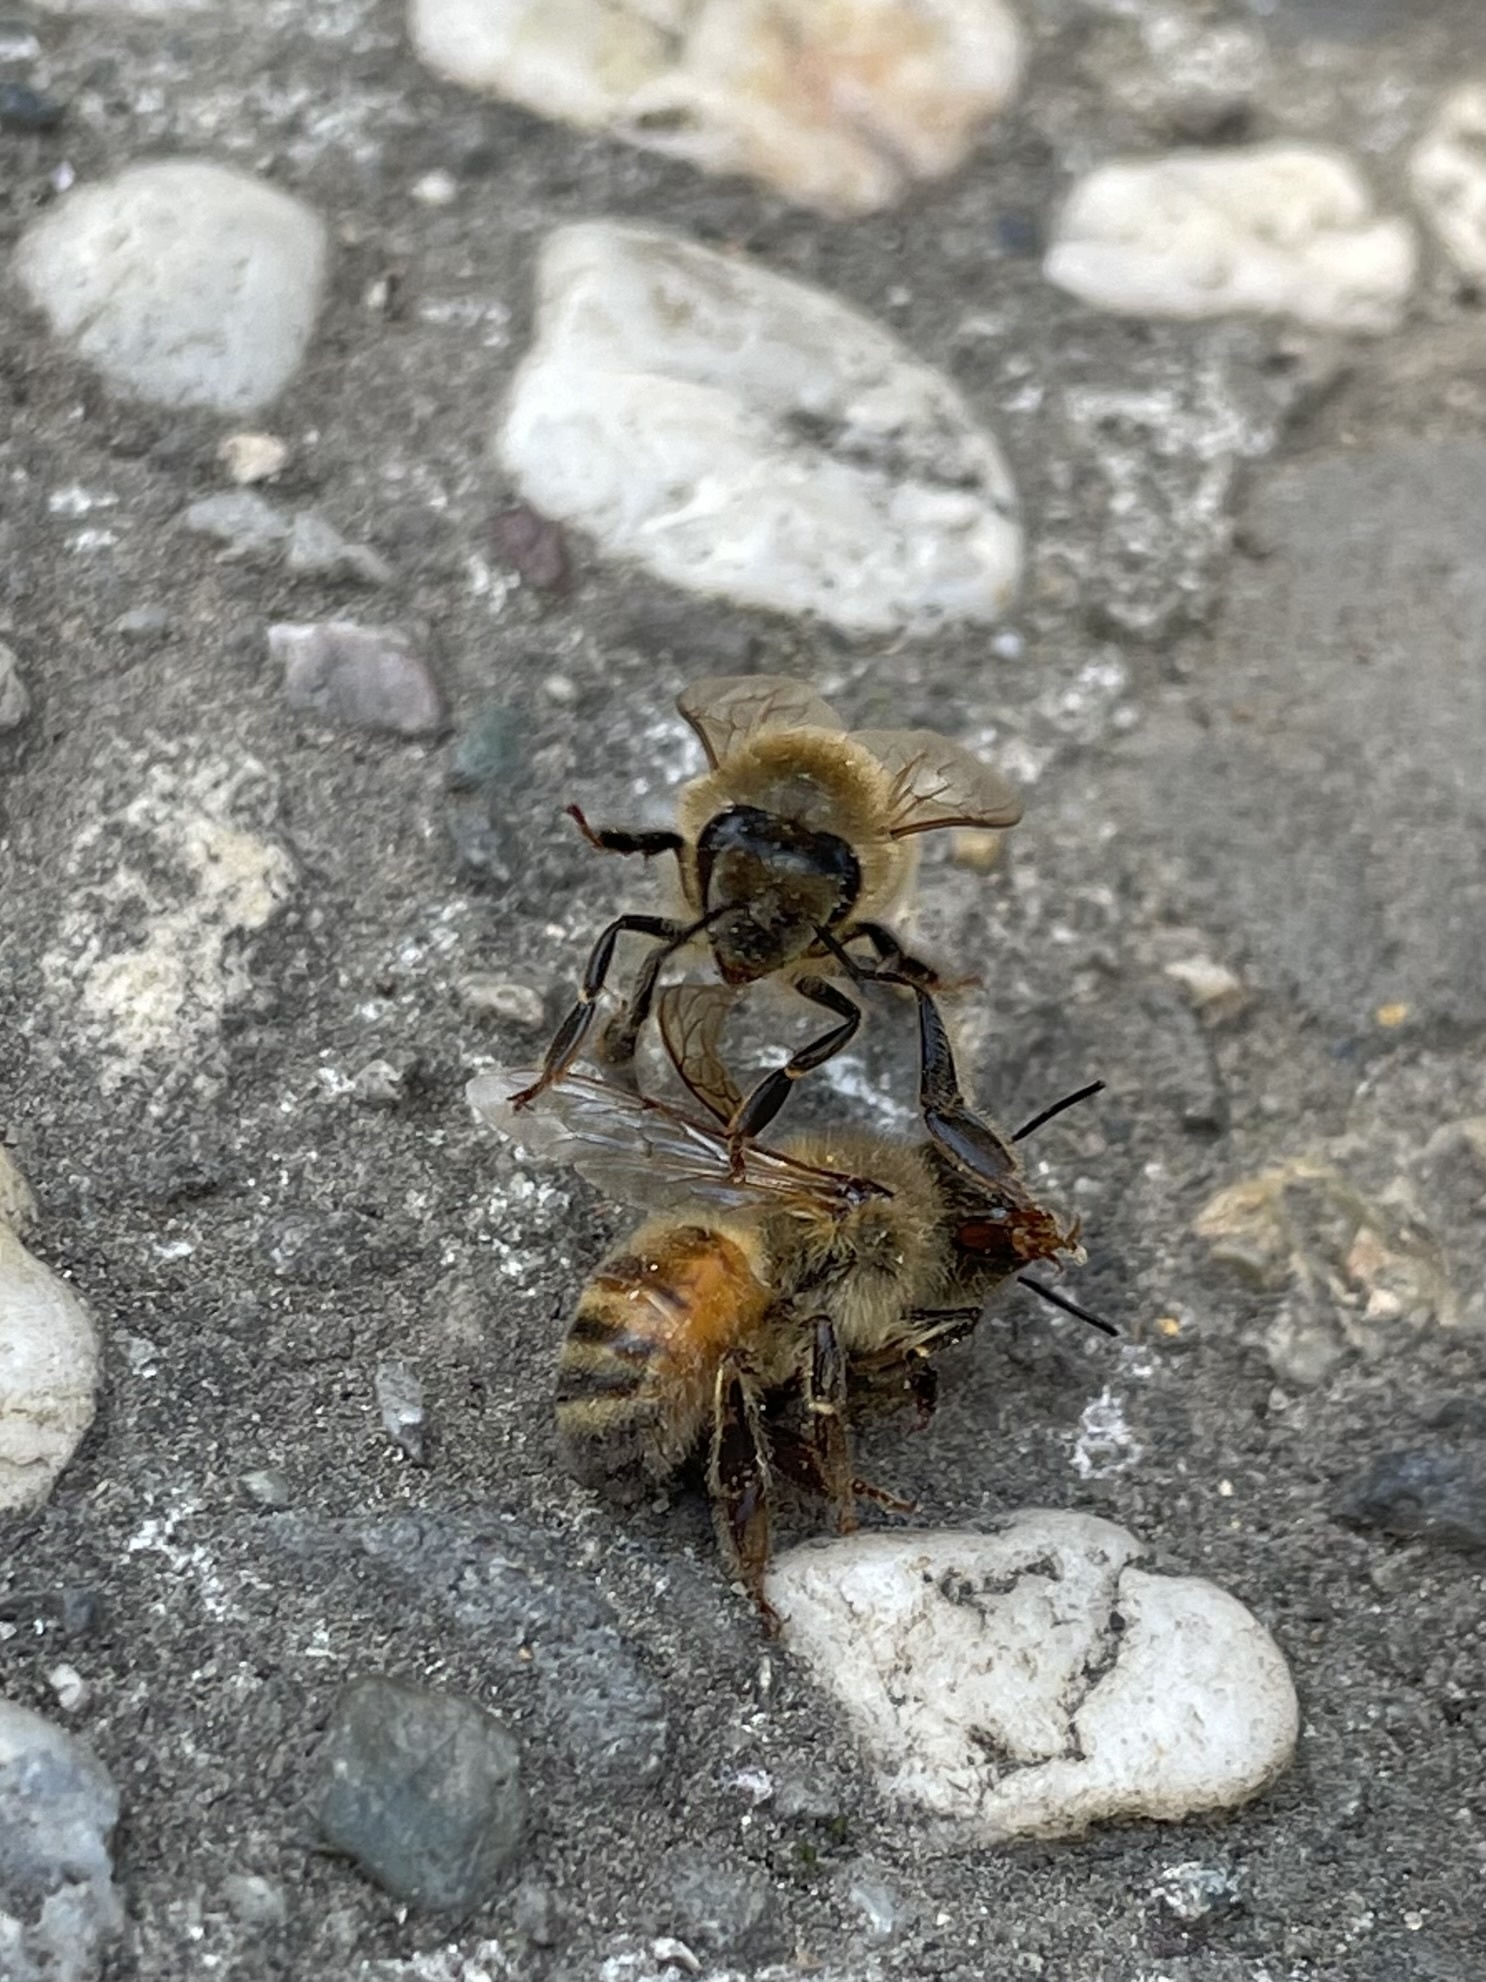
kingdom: Animalia
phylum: Arthropoda
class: Insecta
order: Hymenoptera
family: Apidae
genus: Apis
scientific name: Apis mellifera
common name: Honey bee
